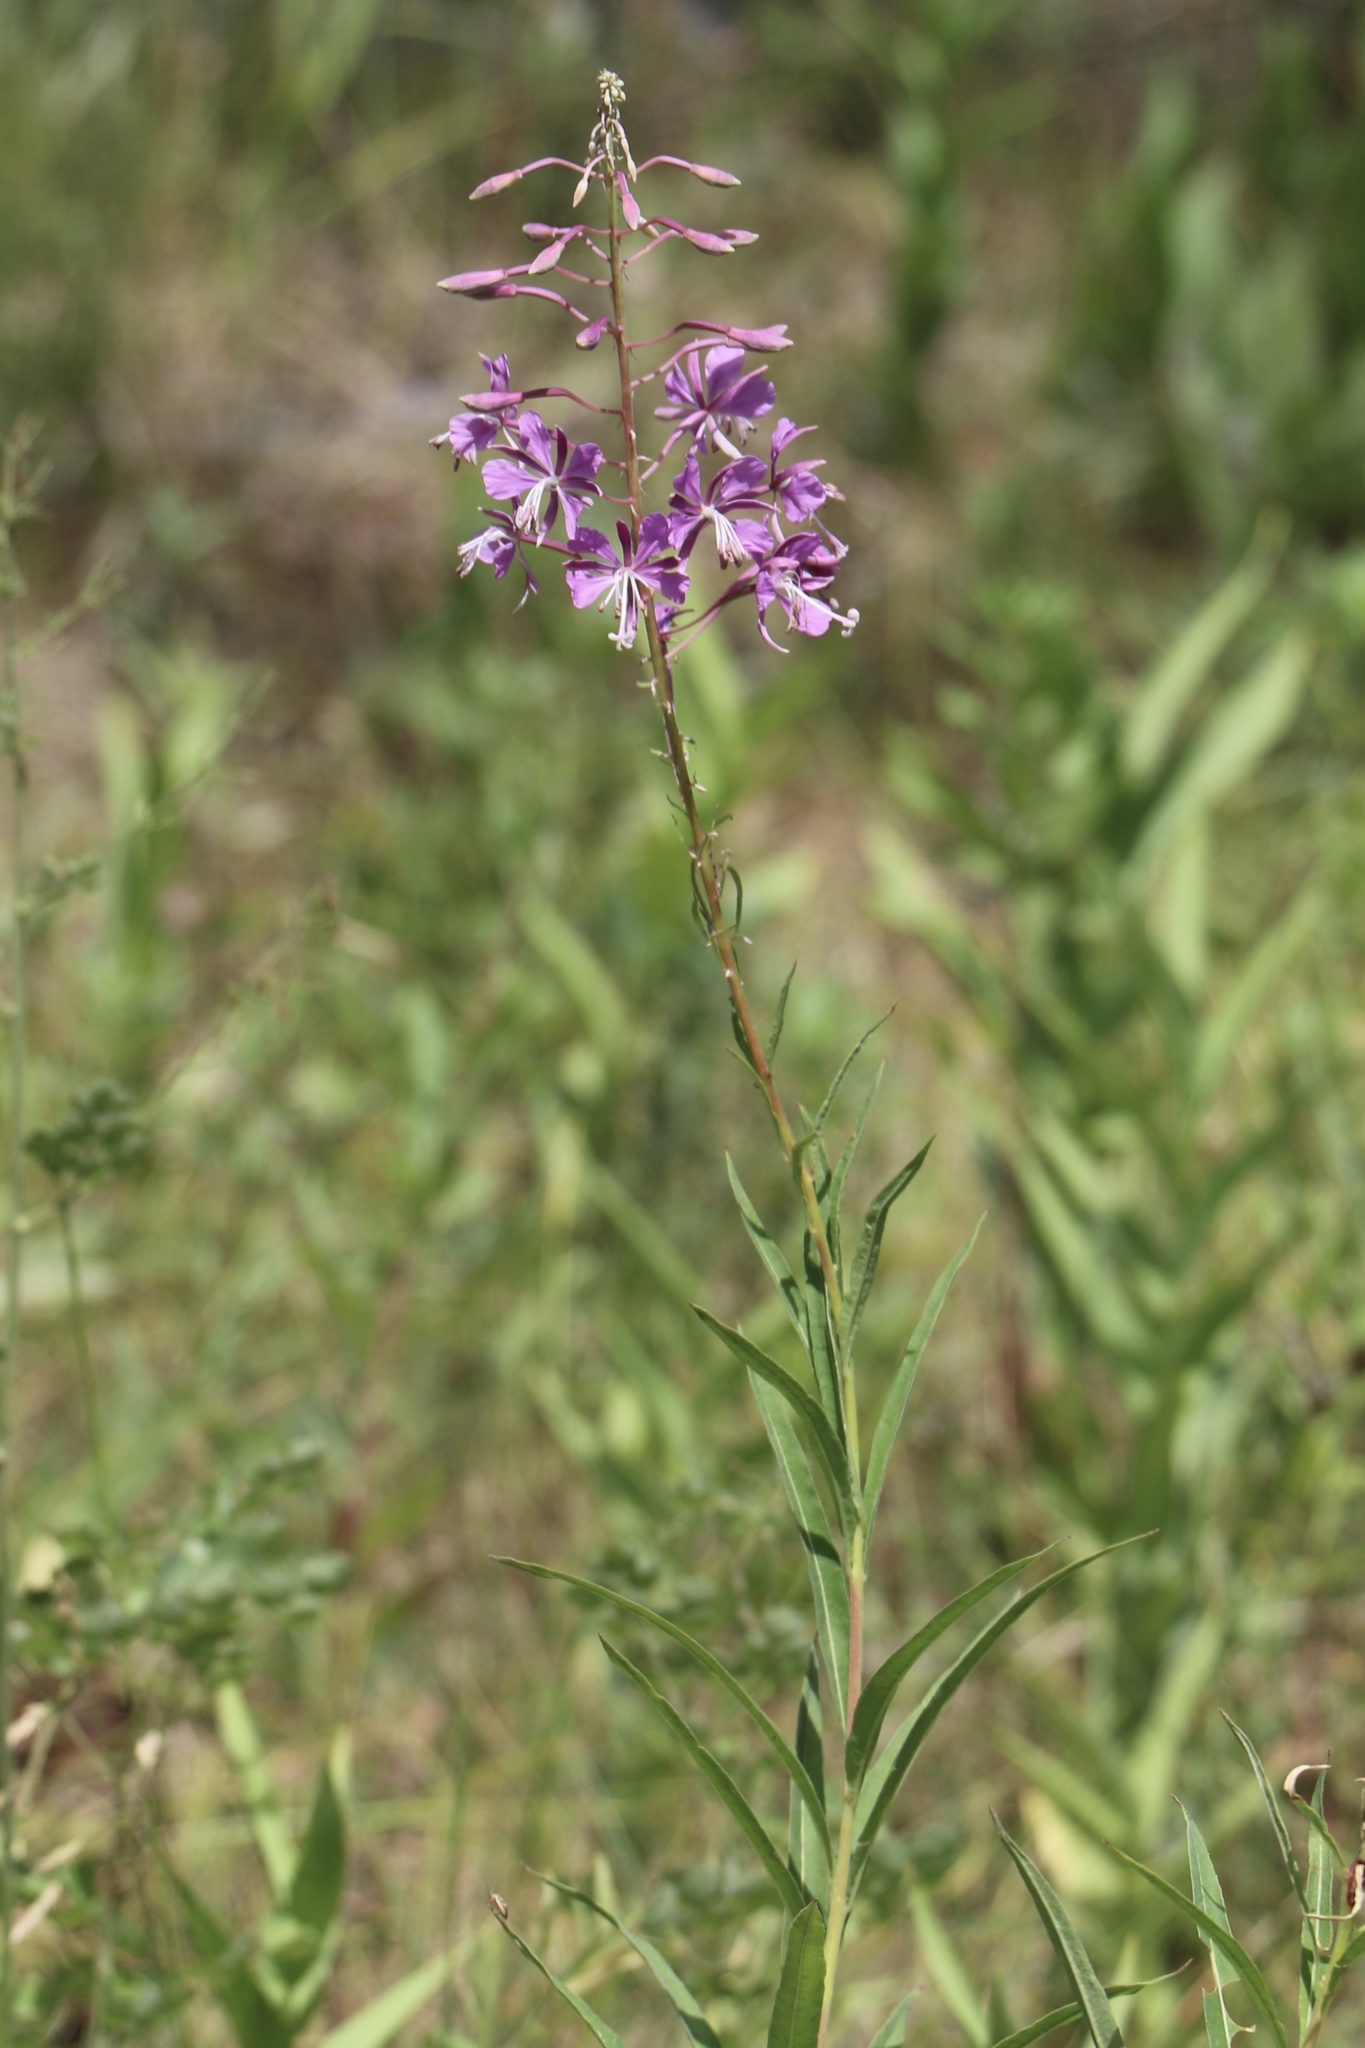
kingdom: Plantae
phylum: Tracheophyta
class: Magnoliopsida
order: Myrtales
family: Onagraceae
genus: Chamaenerion
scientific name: Chamaenerion angustifolium
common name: Fireweed
